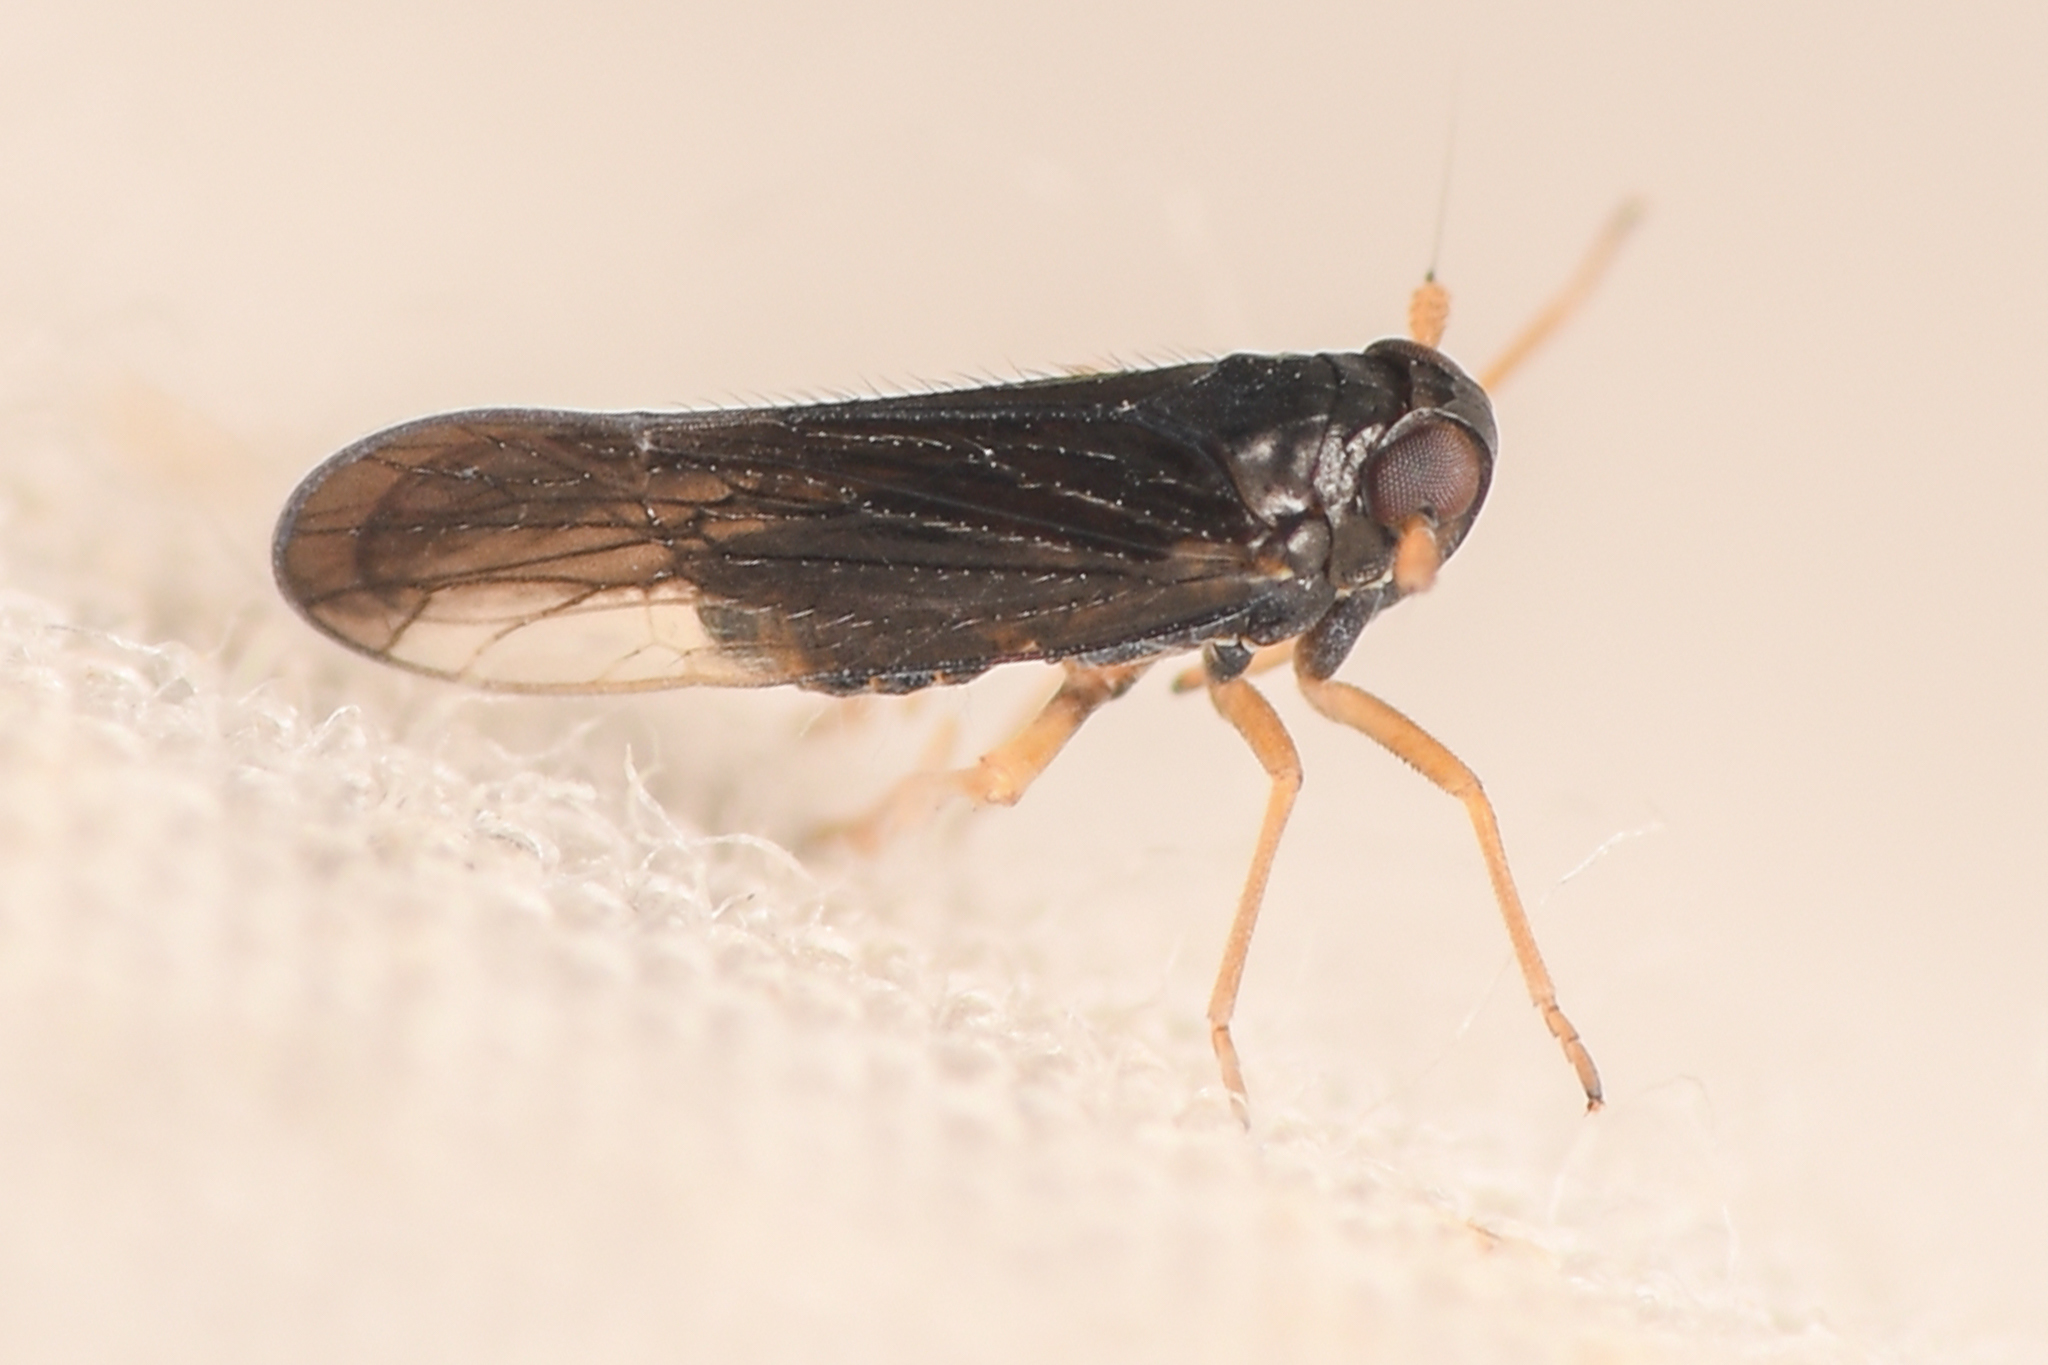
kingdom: Animalia
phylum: Arthropoda
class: Insecta
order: Hemiptera
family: Delphacidae
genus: Caenodelphax
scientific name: Caenodelphax teapae
